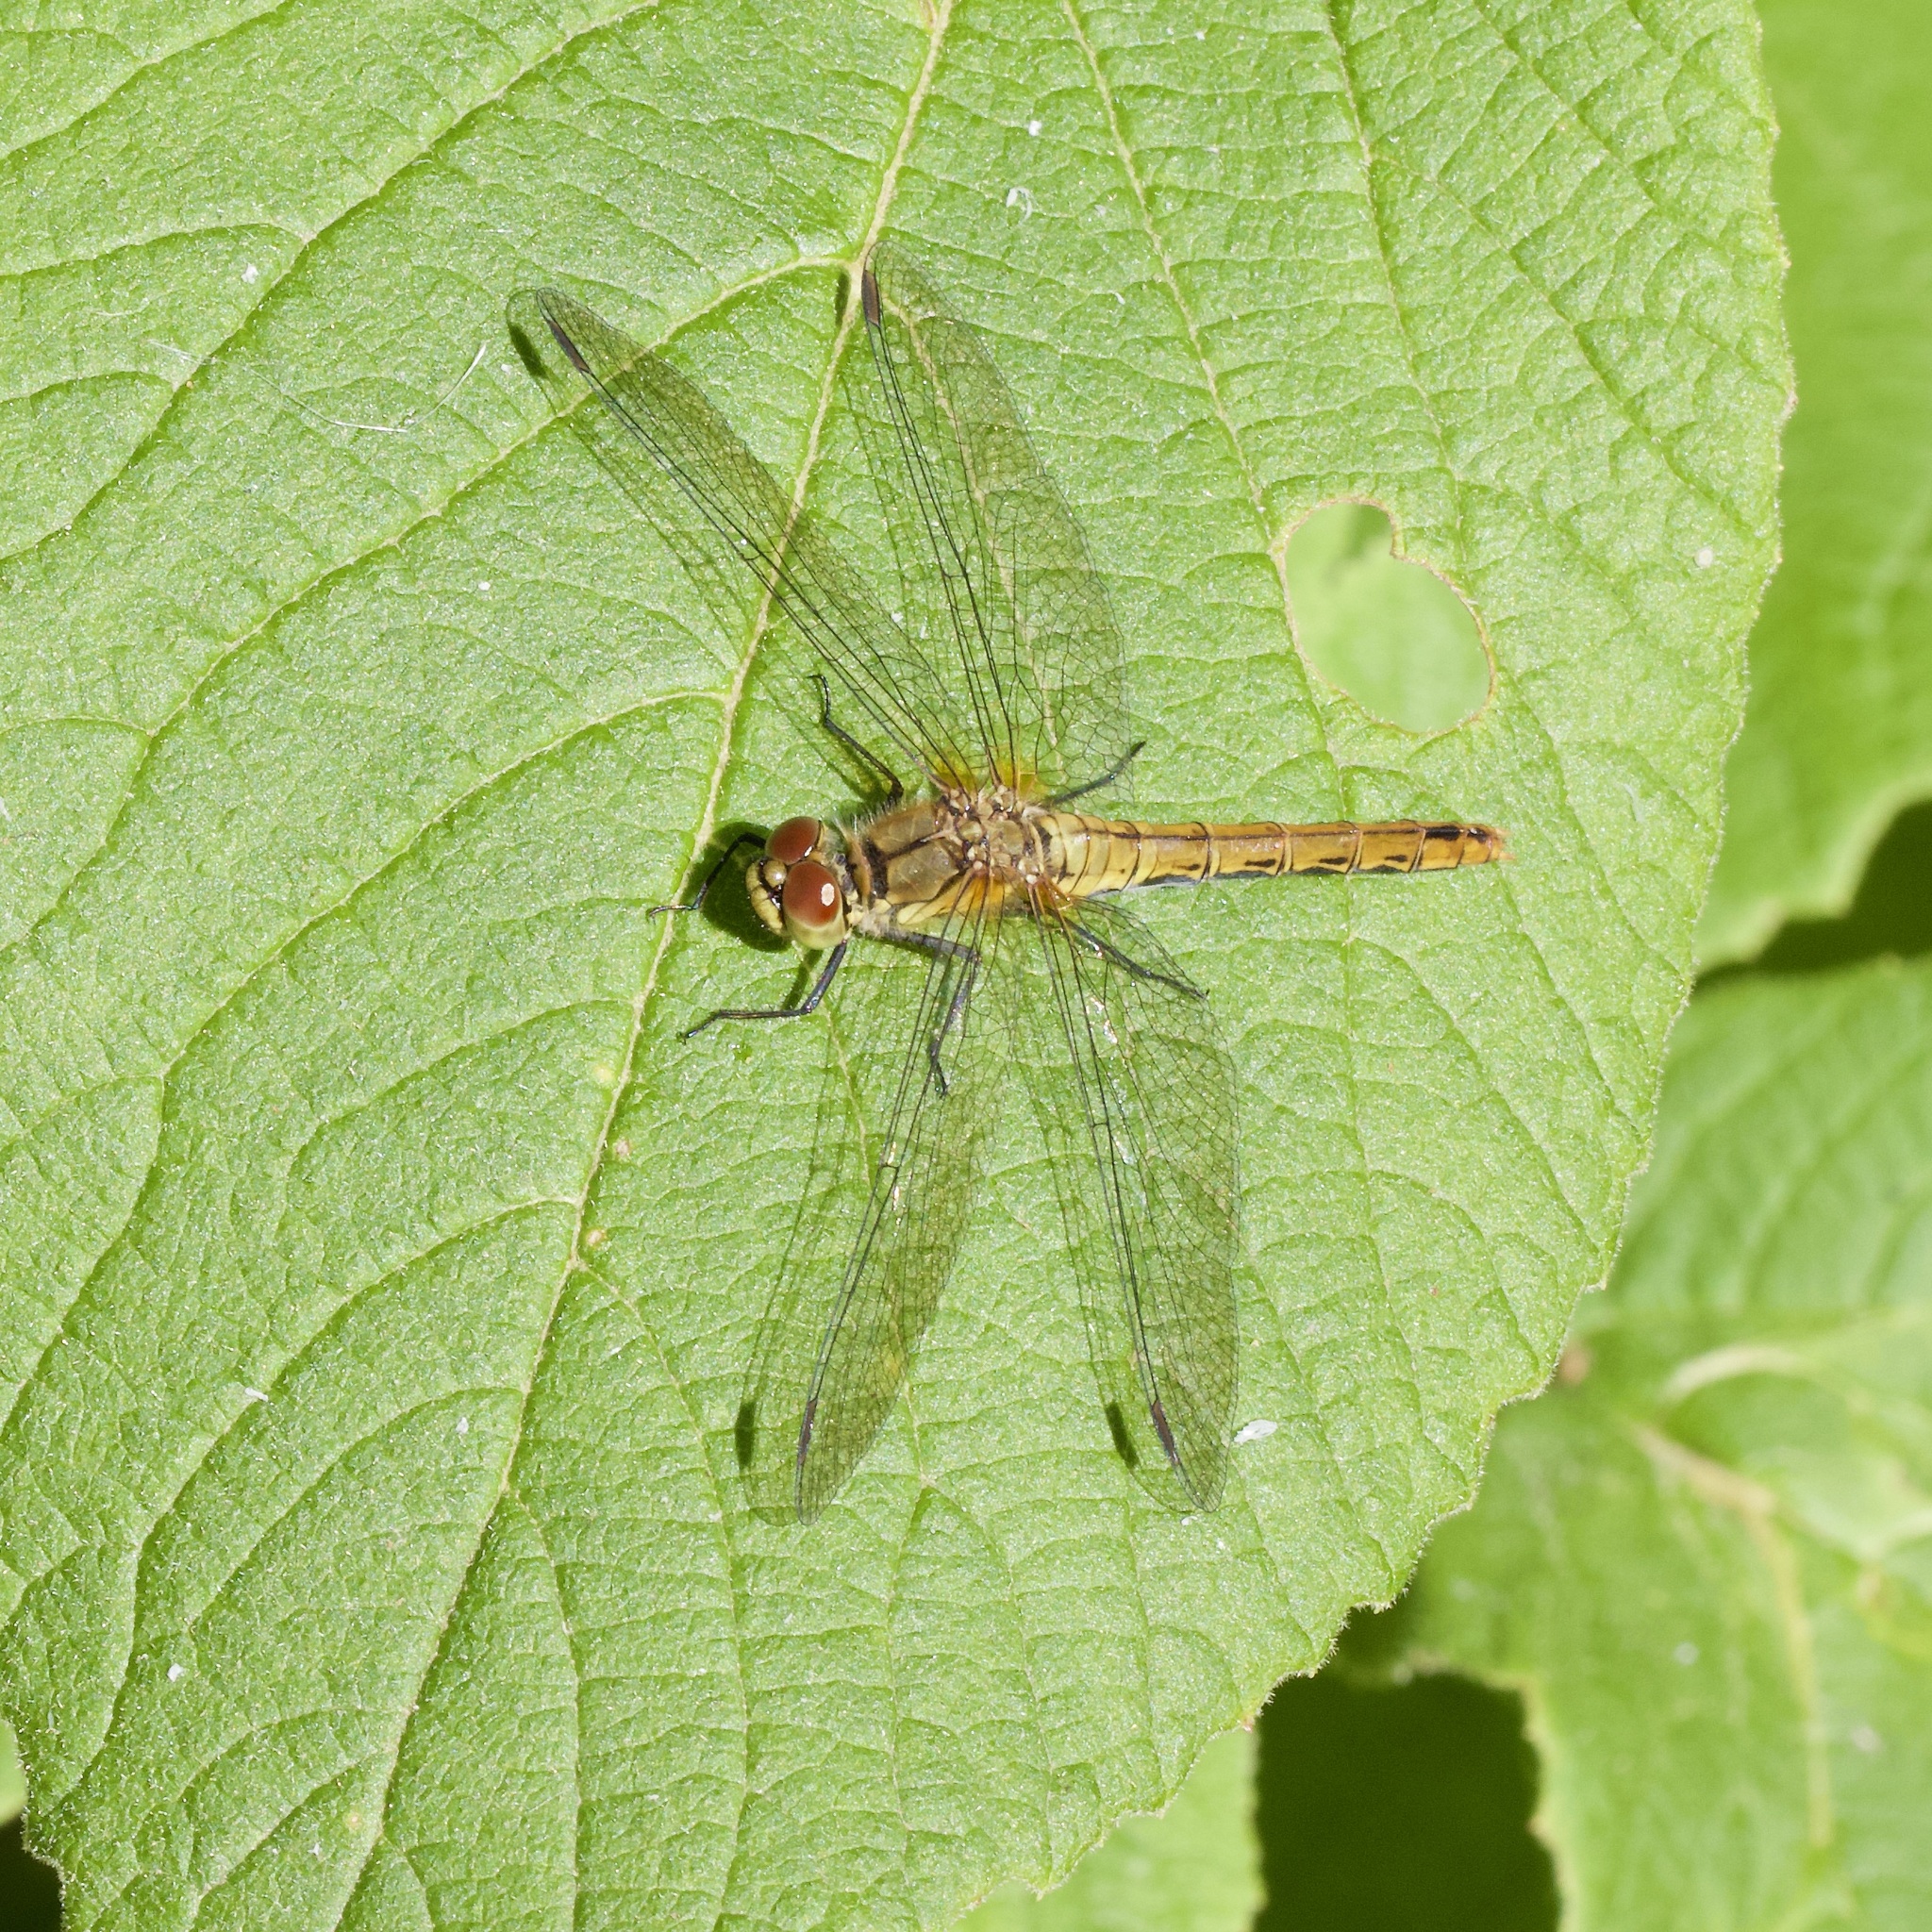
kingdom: Animalia
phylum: Arthropoda
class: Insecta
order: Odonata
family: Libellulidae
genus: Sympetrum
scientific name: Sympetrum sanguineum
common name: Ruddy darter
